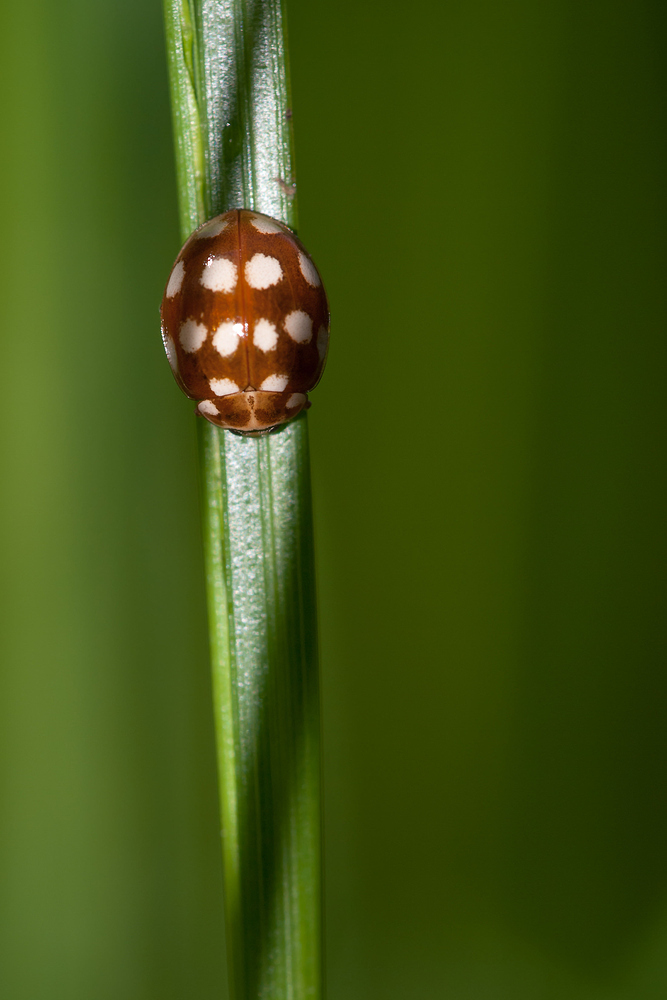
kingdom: Animalia
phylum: Arthropoda
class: Insecta
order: Coleoptera
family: Coccinellidae
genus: Calvia
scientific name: Calvia quatuordecimguttata
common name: Cream-spot ladybird
